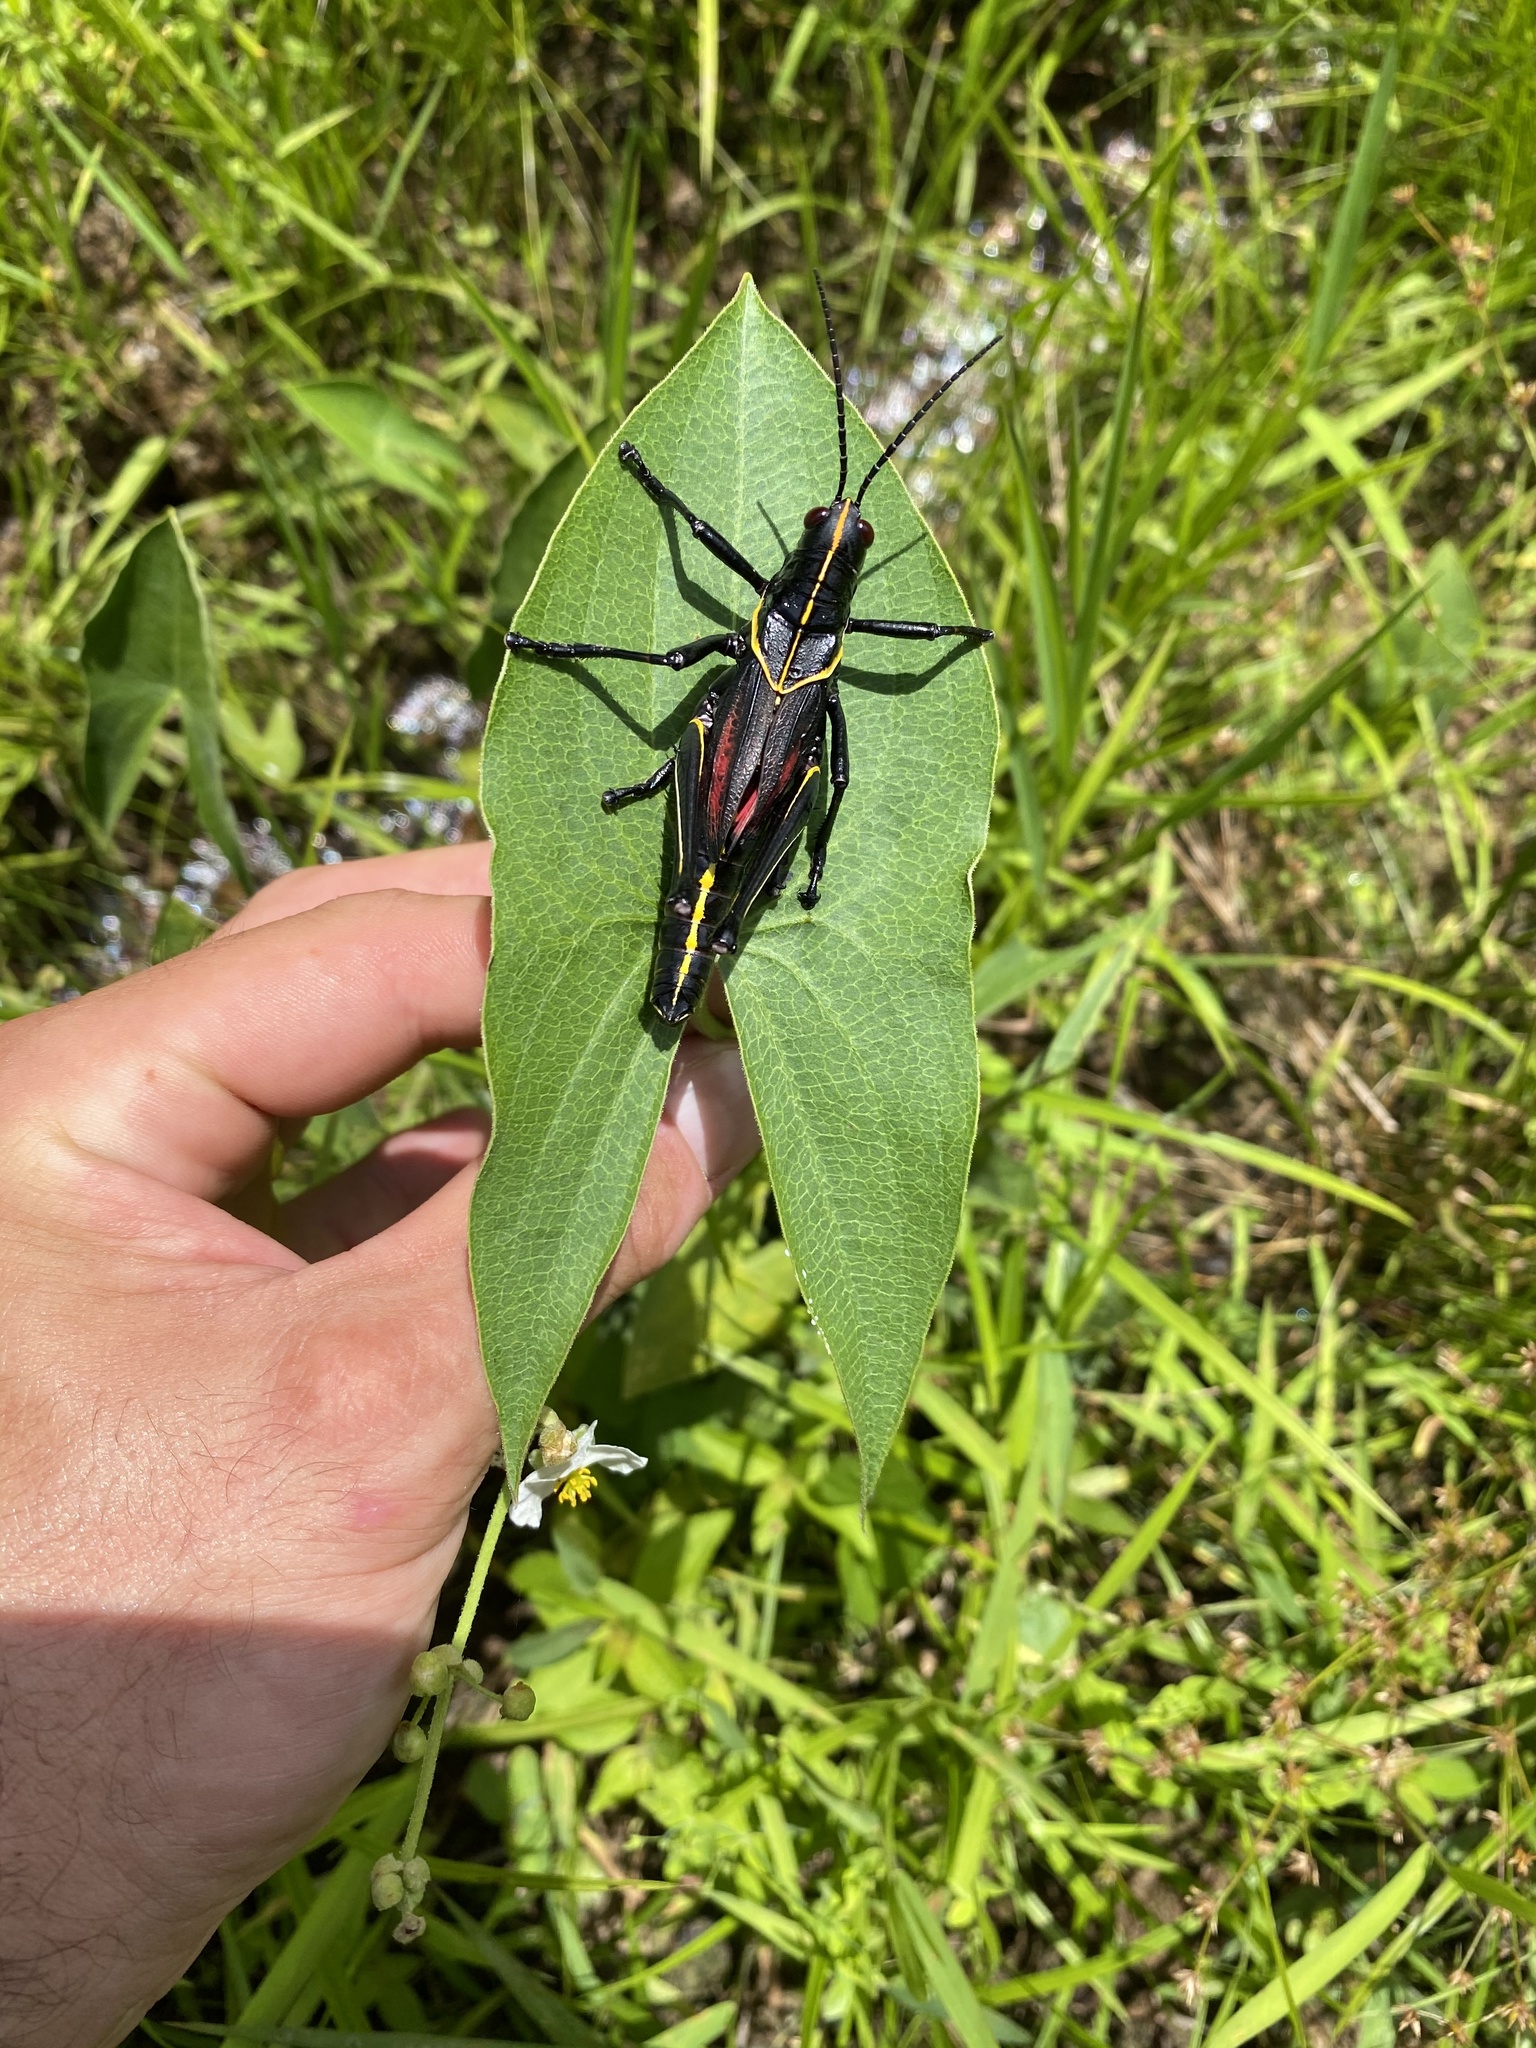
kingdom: Animalia
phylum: Arthropoda
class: Insecta
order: Orthoptera
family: Romaleidae
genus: Romalea
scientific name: Romalea microptera
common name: Eastern lubber grasshopper
